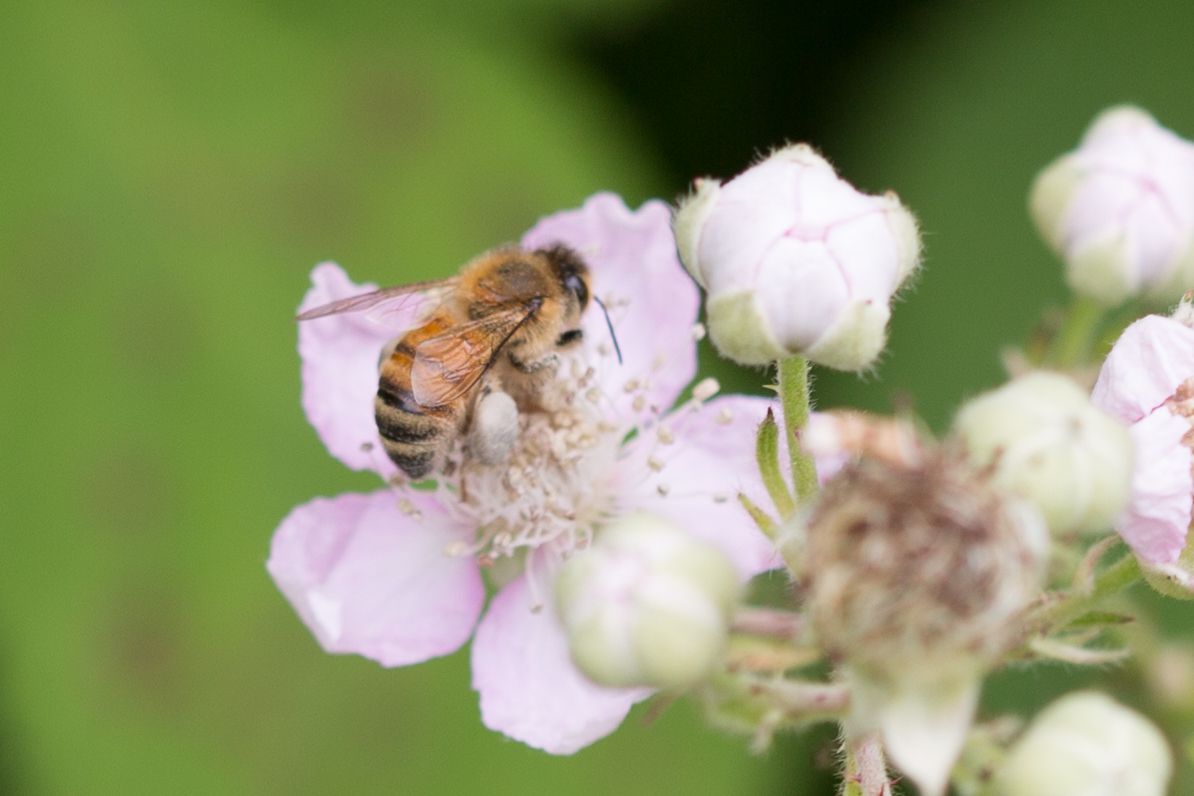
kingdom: Animalia
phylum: Arthropoda
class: Insecta
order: Hymenoptera
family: Apidae
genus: Apis
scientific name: Apis mellifera
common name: Honey bee
